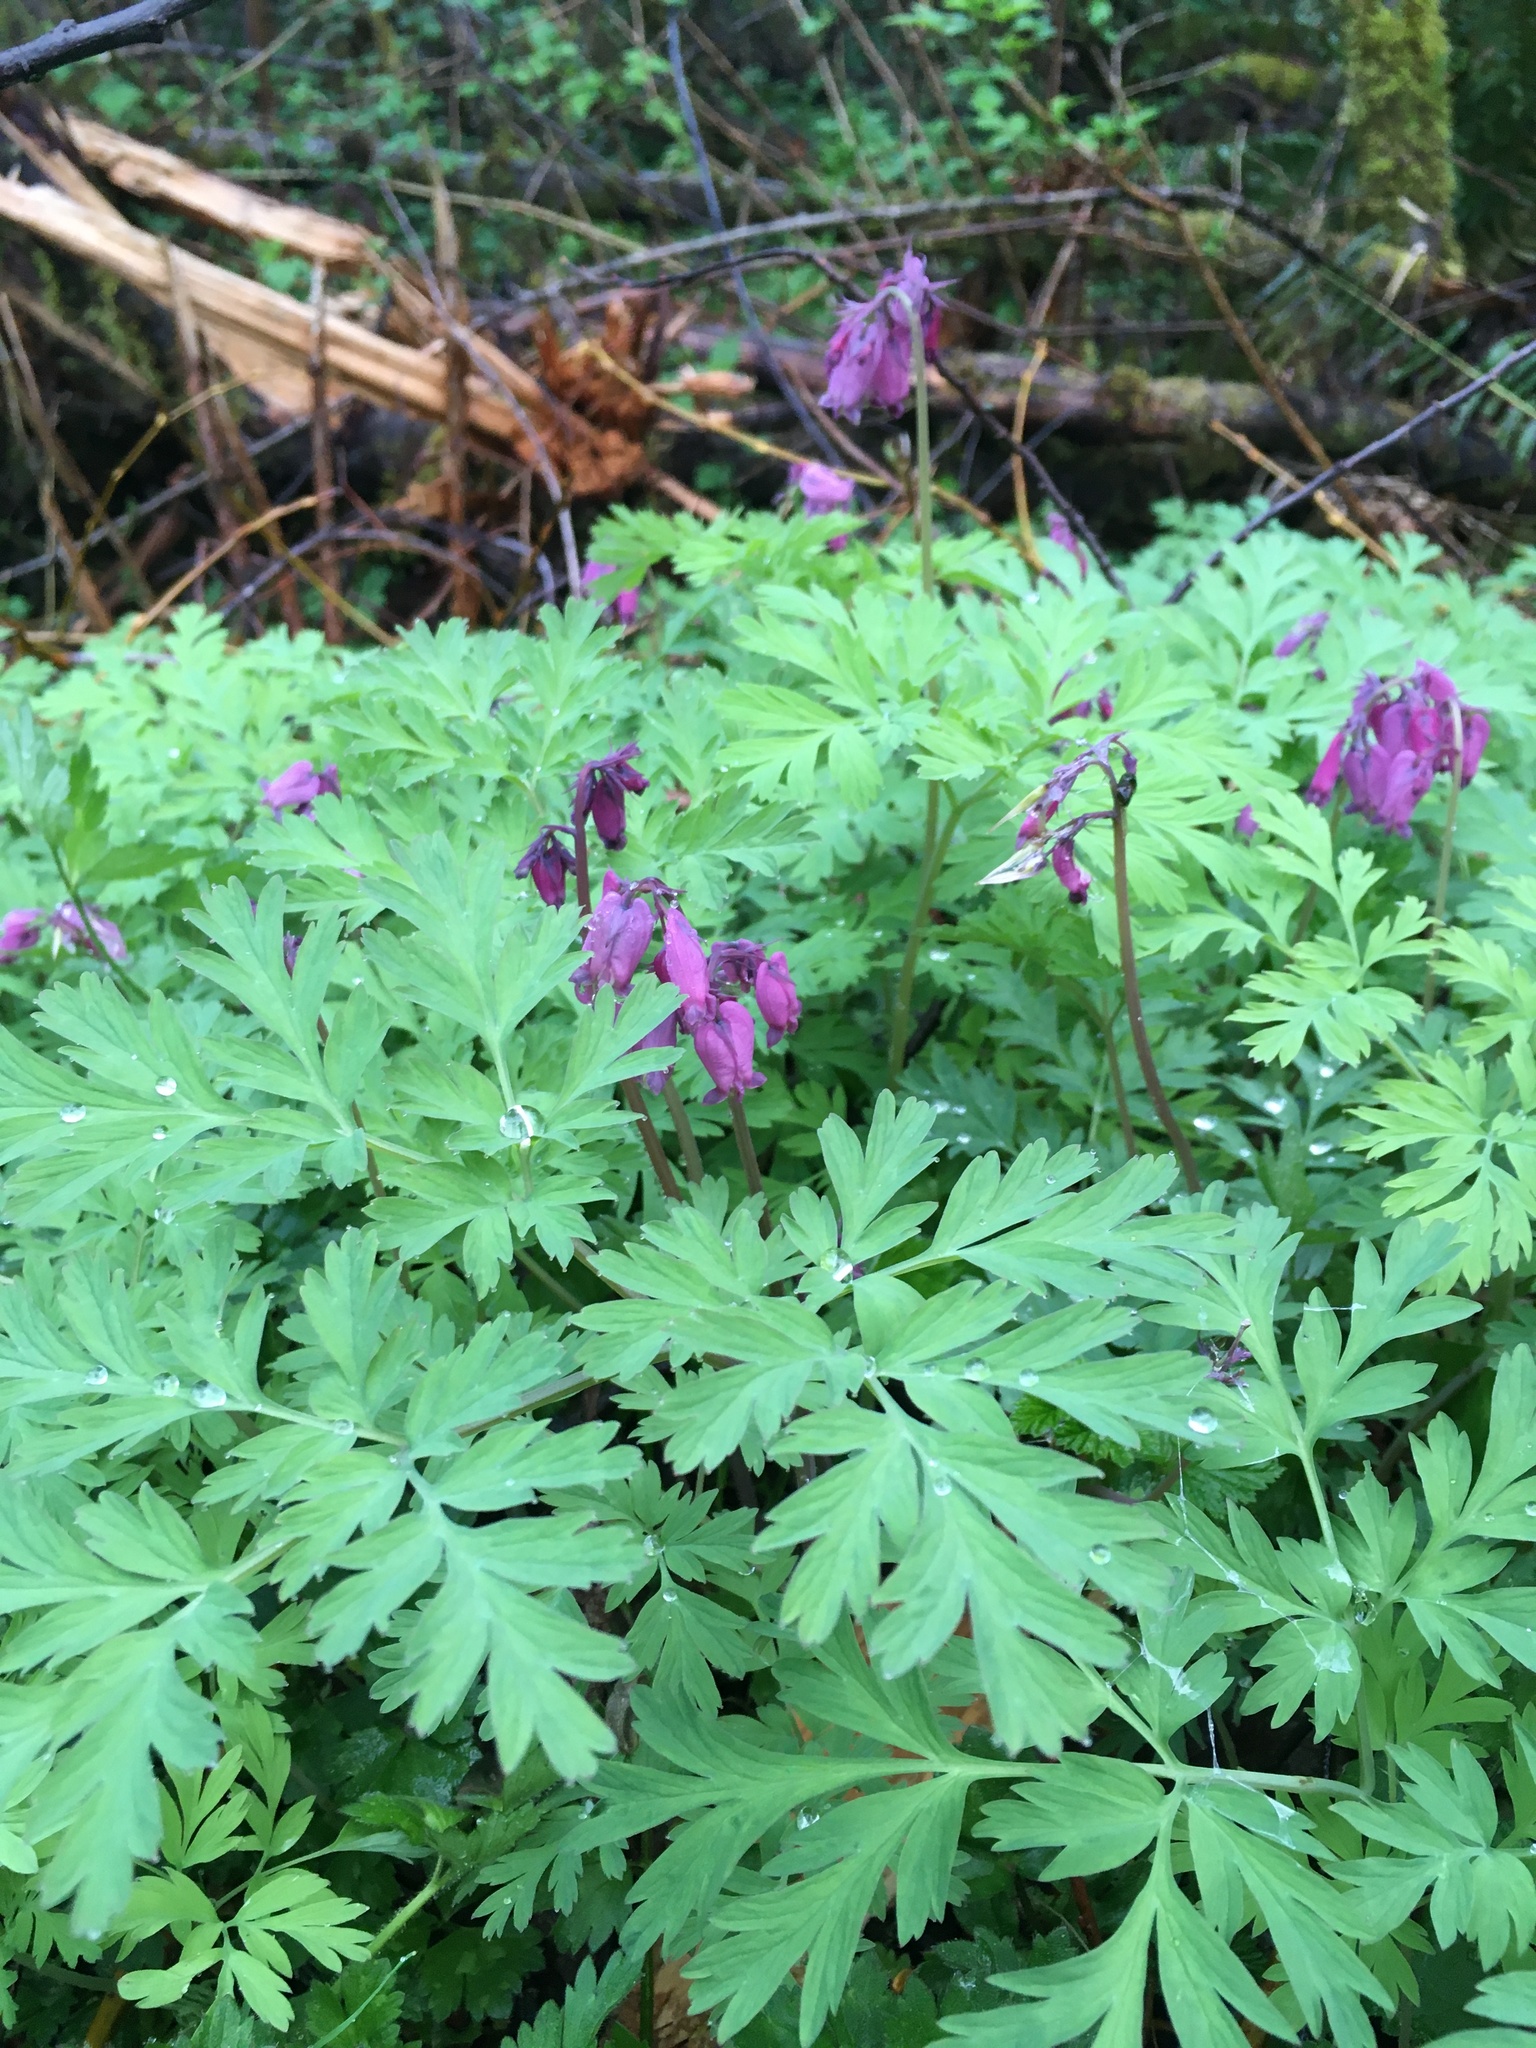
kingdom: Plantae
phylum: Tracheophyta
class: Magnoliopsida
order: Ranunculales
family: Papaveraceae
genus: Dicentra
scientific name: Dicentra formosa
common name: Bleeding-heart
